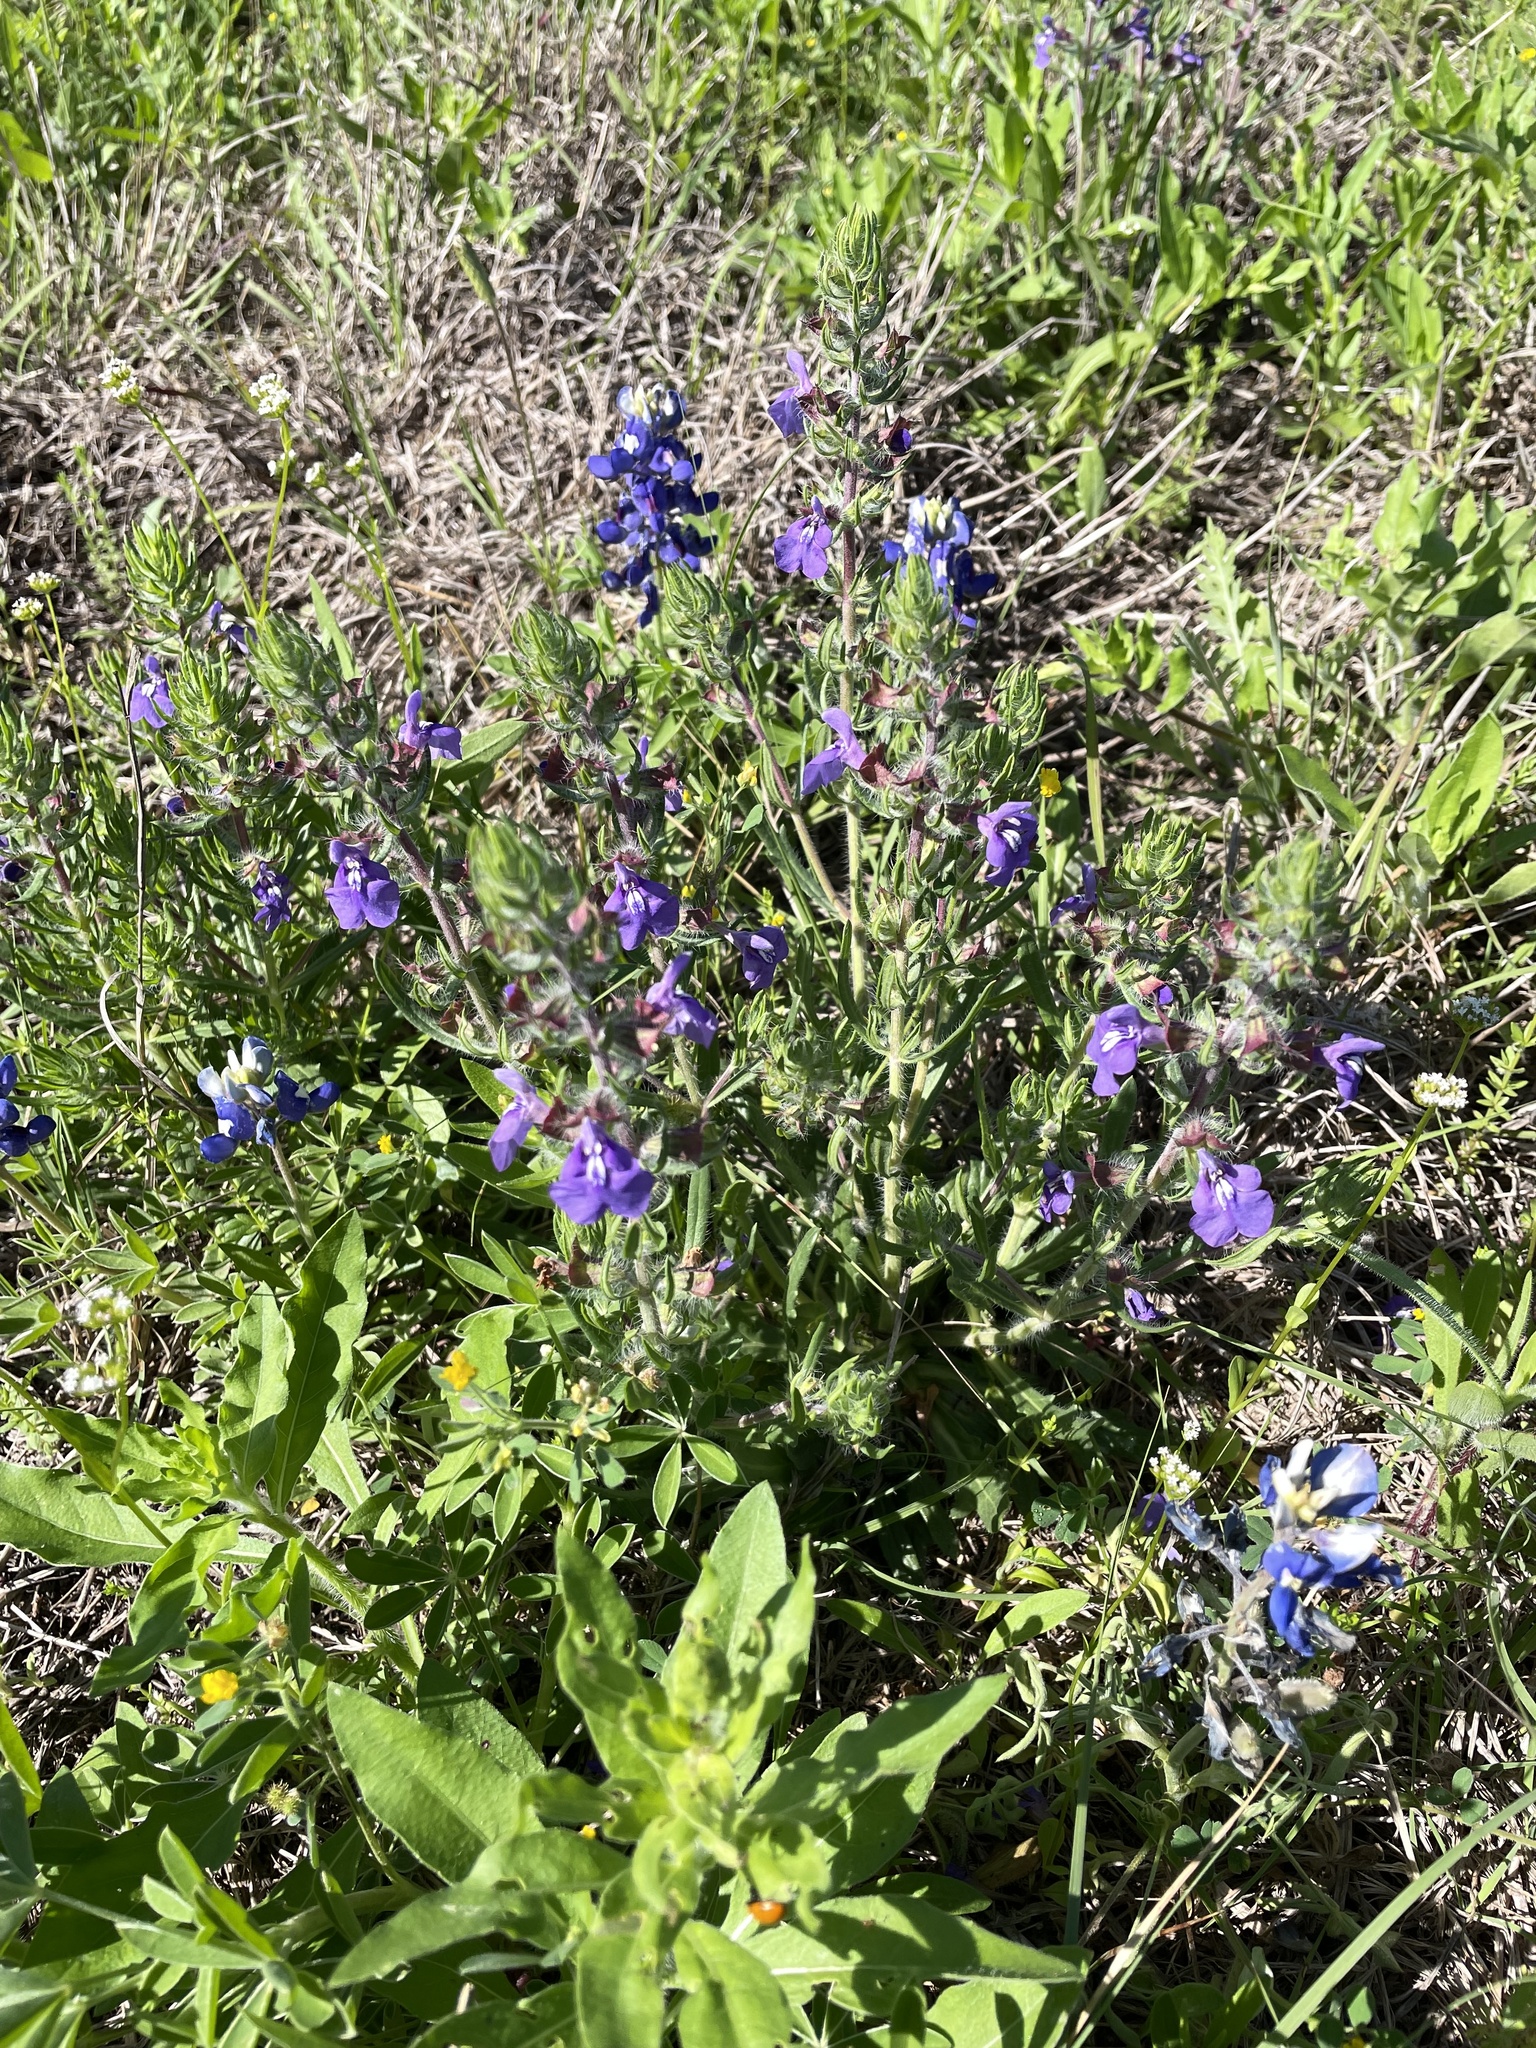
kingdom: Plantae
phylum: Tracheophyta
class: Magnoliopsida
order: Lamiales
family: Lamiaceae
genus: Salvia
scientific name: Salvia texana
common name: Texas sage
